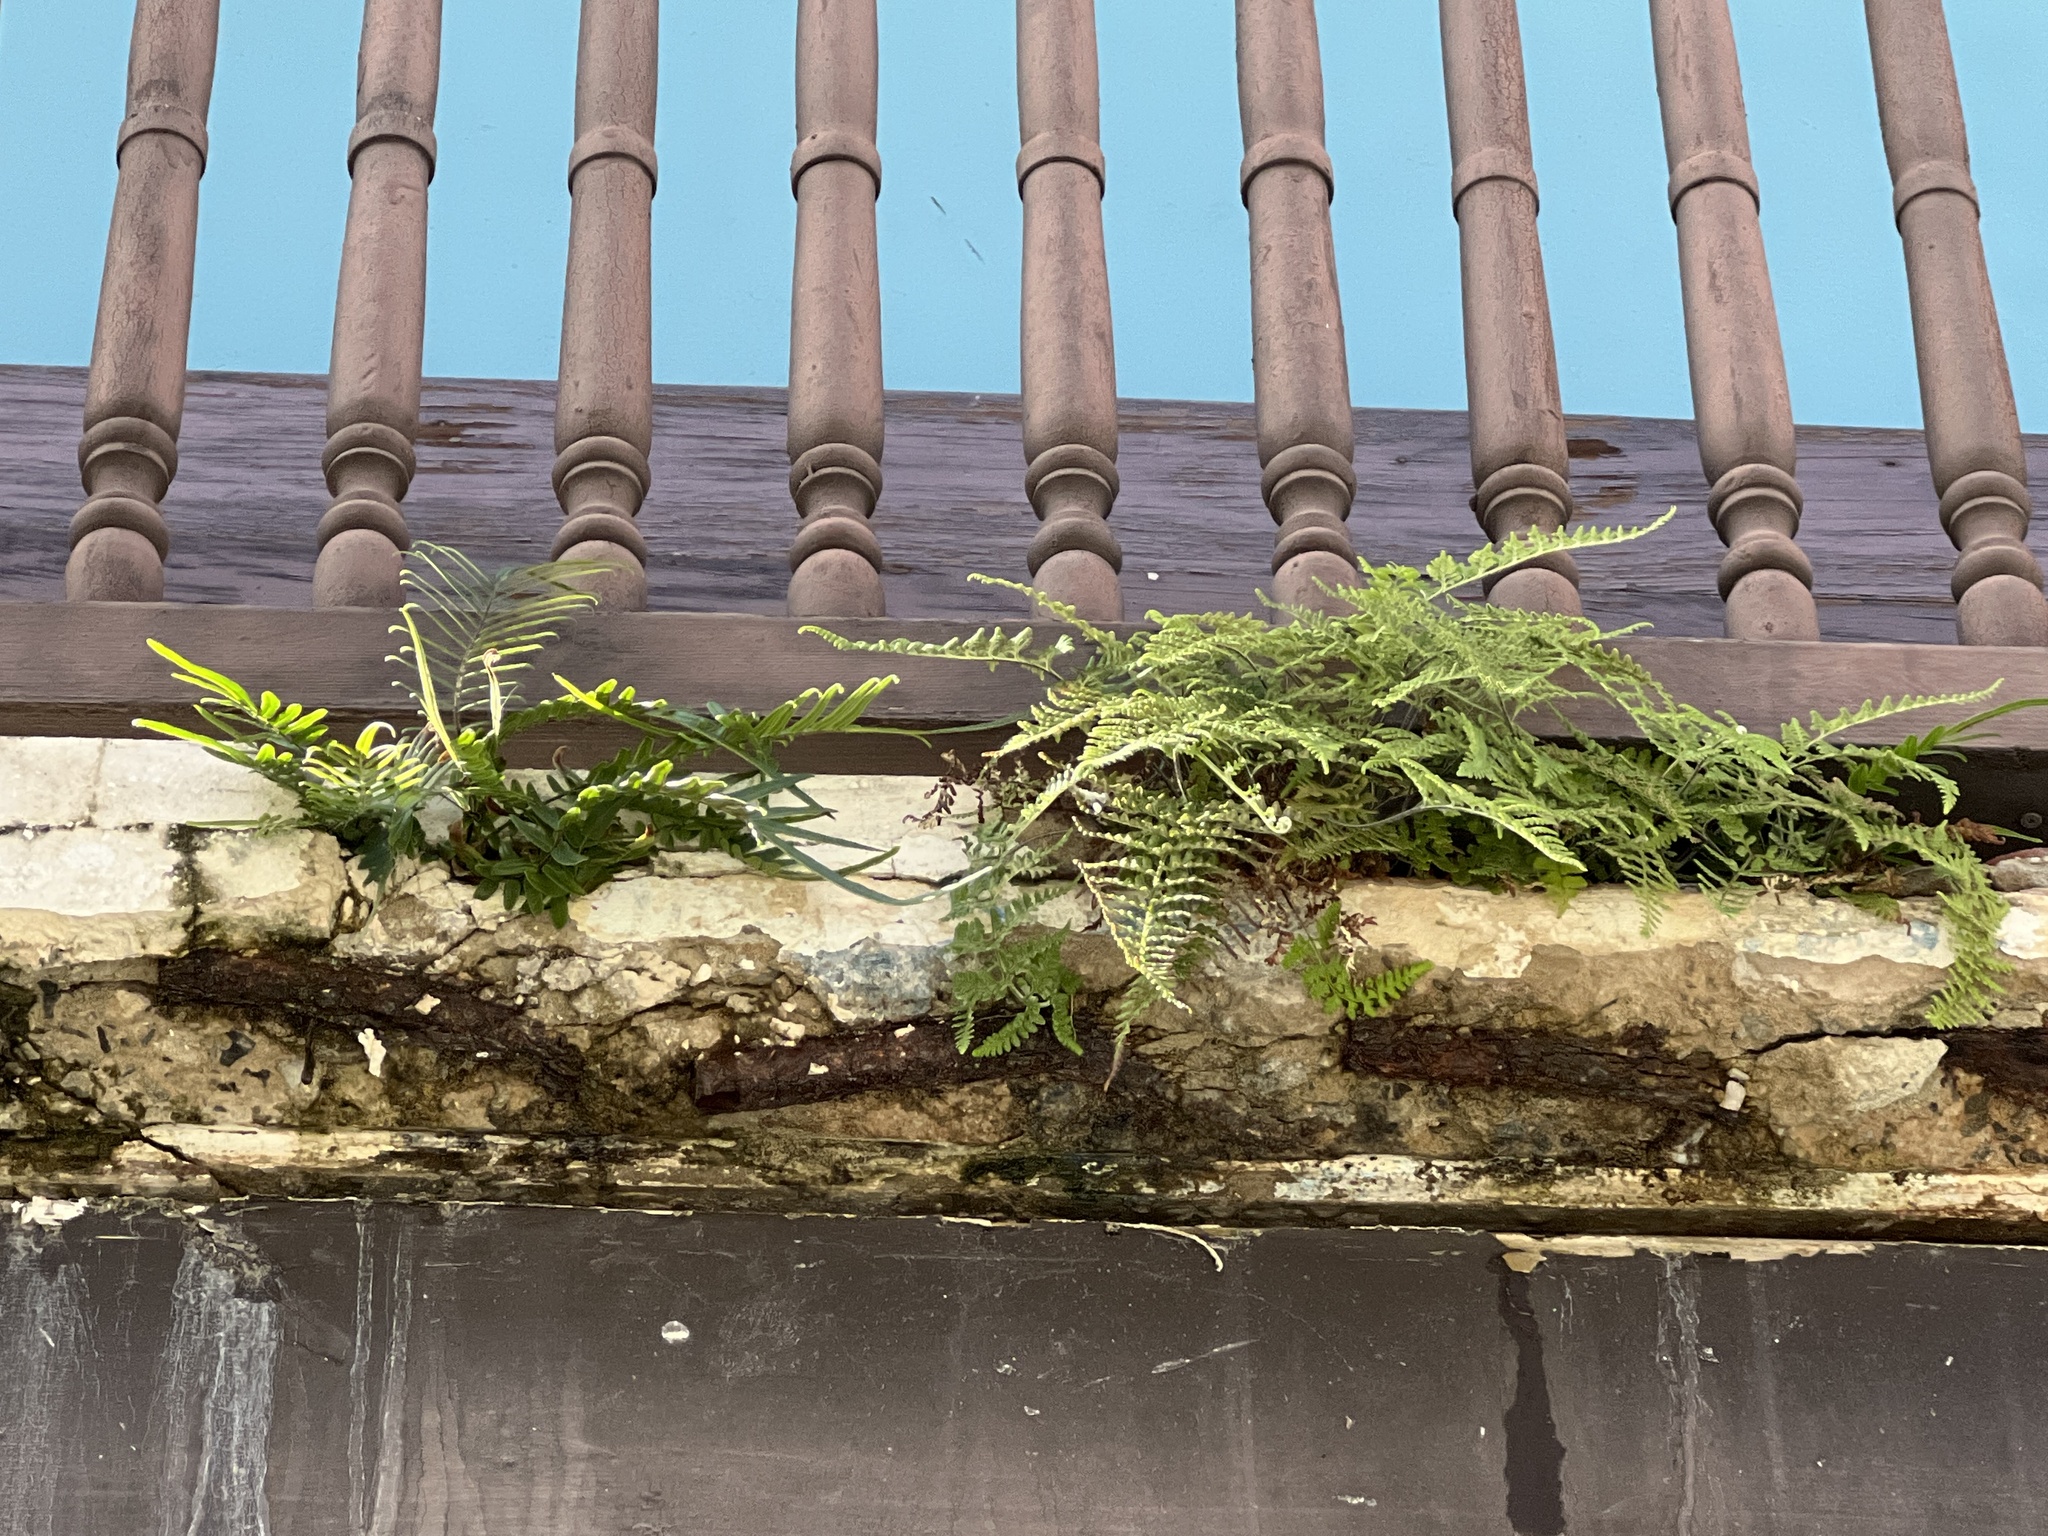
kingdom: Plantae
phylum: Tracheophyta
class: Polypodiopsida
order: Polypodiales
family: Pteridaceae
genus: Pityrogramma
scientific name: Pityrogramma chrysophylla
